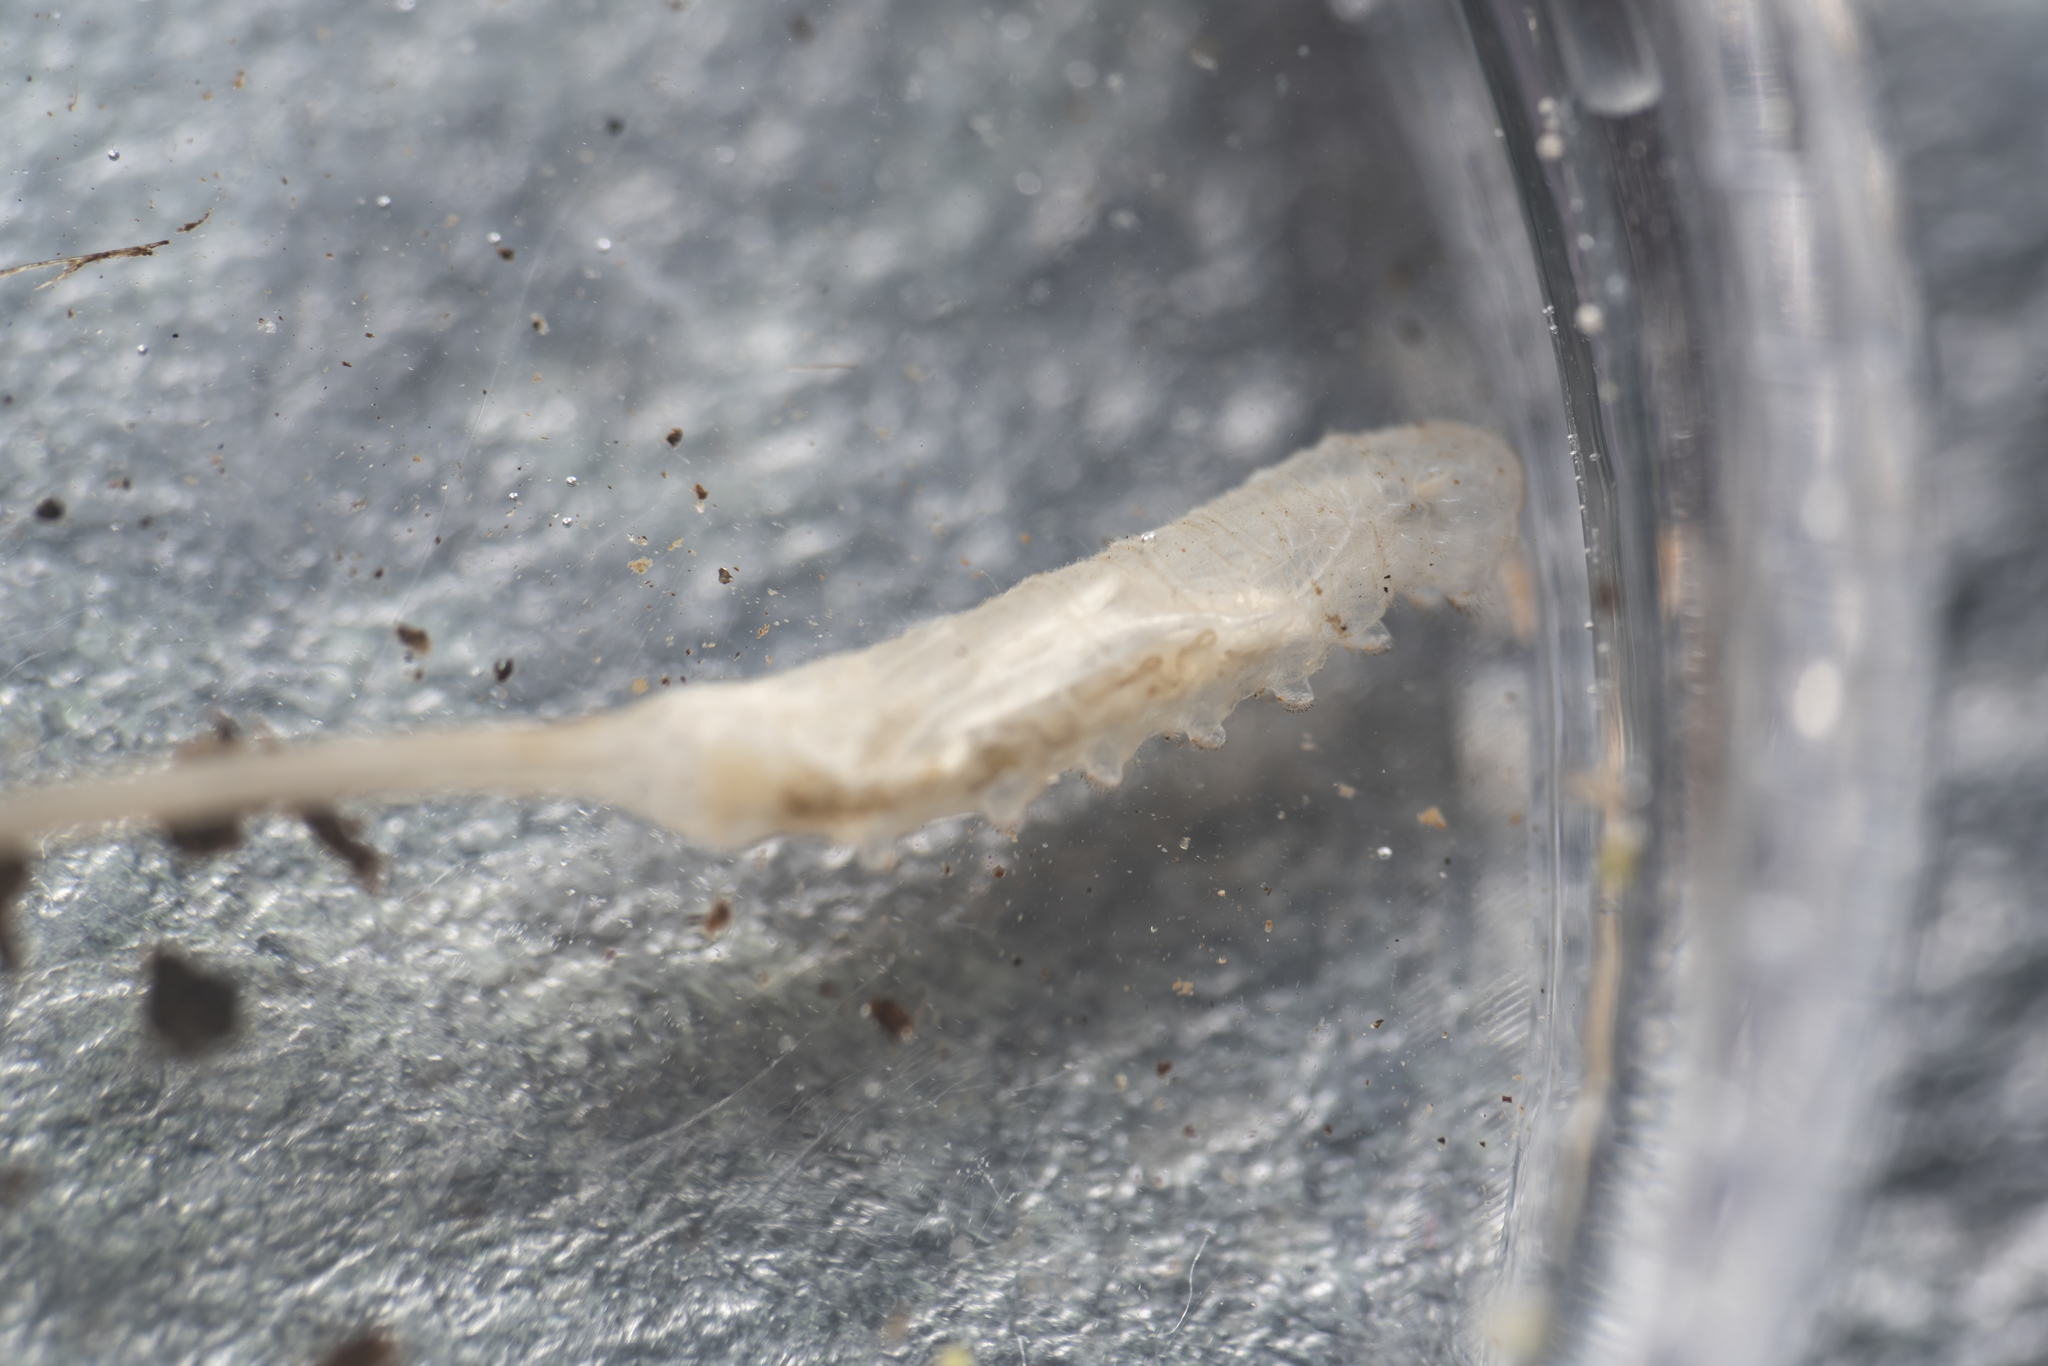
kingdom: Animalia
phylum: Arthropoda
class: Insecta
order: Diptera
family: Syrphidae
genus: Myathropa
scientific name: Myathropa florea
